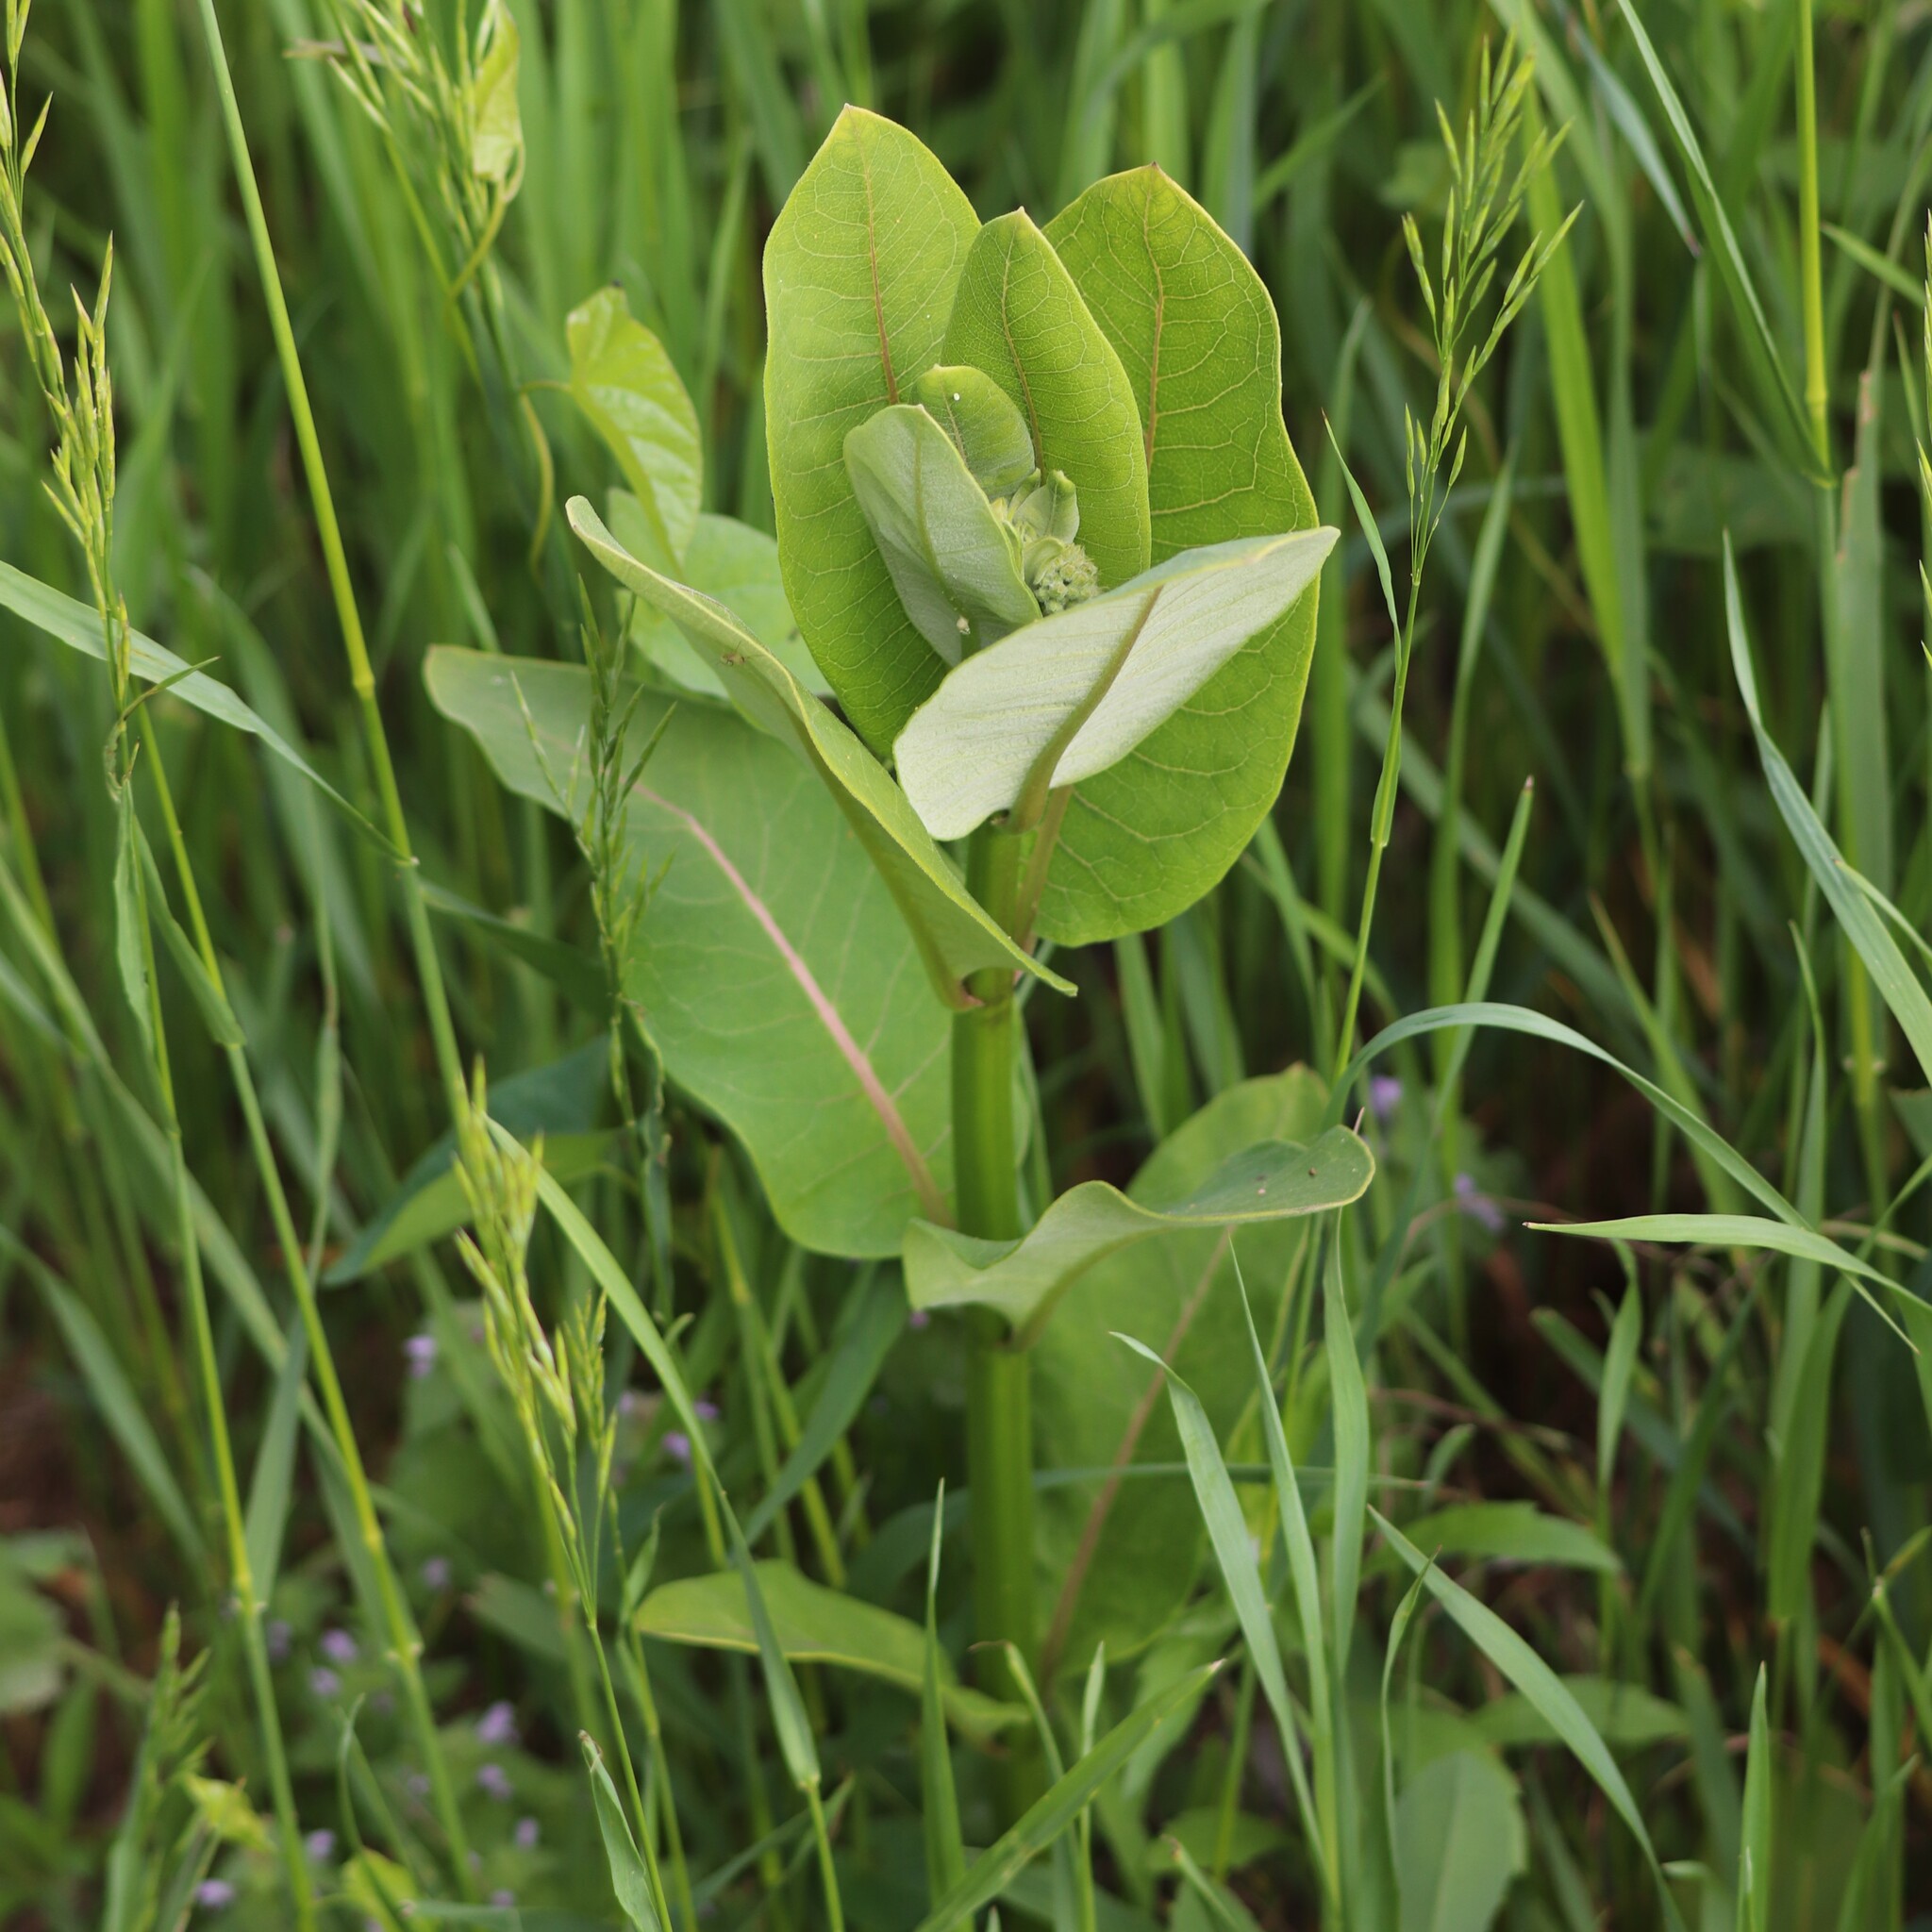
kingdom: Plantae
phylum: Tracheophyta
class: Magnoliopsida
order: Gentianales
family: Apocynaceae
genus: Asclepias
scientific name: Asclepias syriaca
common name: Common milkweed
